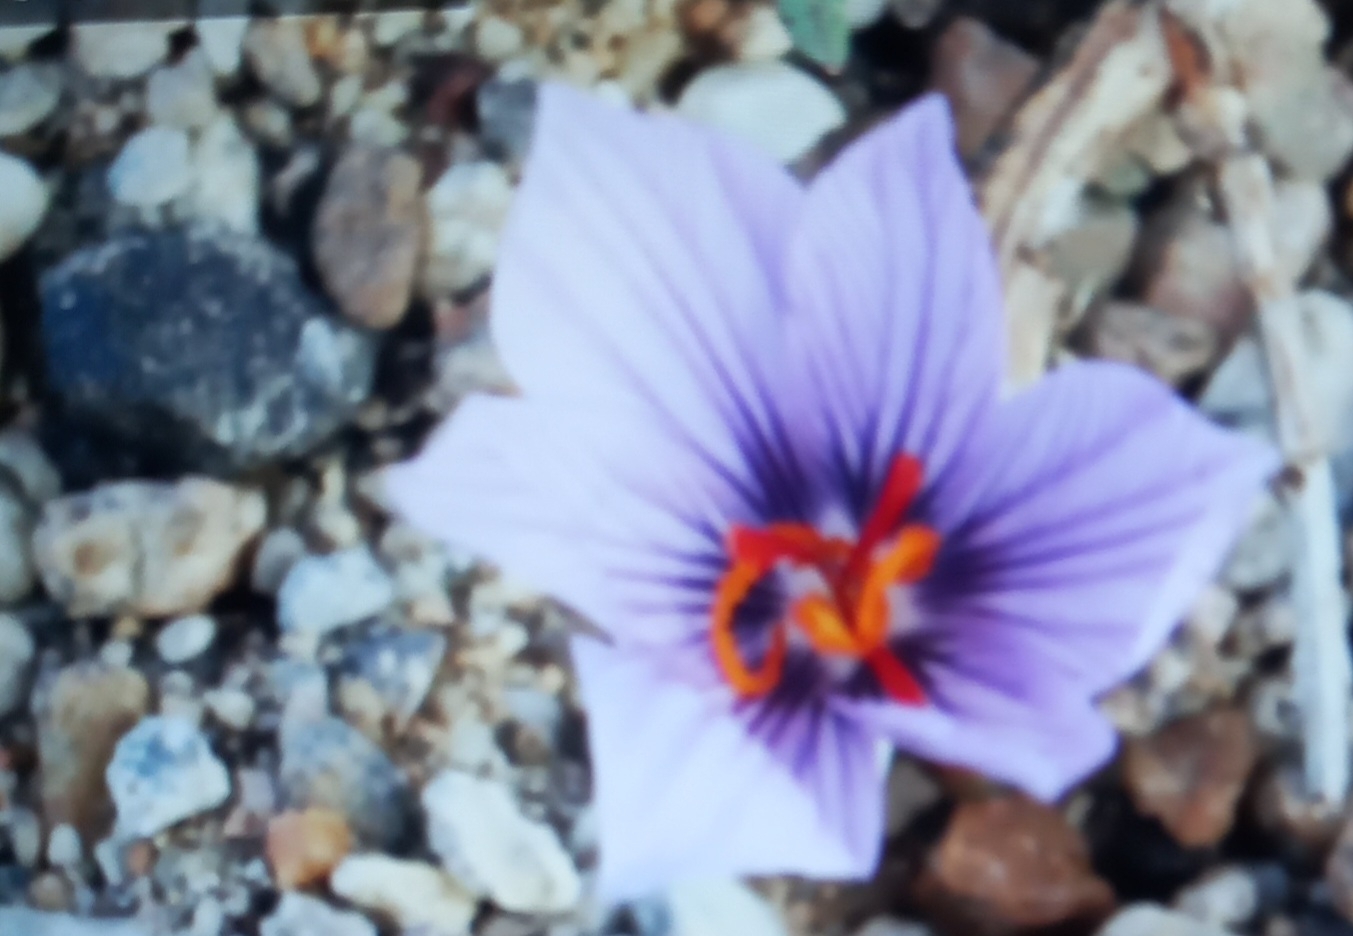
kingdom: Plantae
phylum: Tracheophyta
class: Liliopsida
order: Asparagales
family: Iridaceae
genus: Crocus
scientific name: Crocus pallasii
